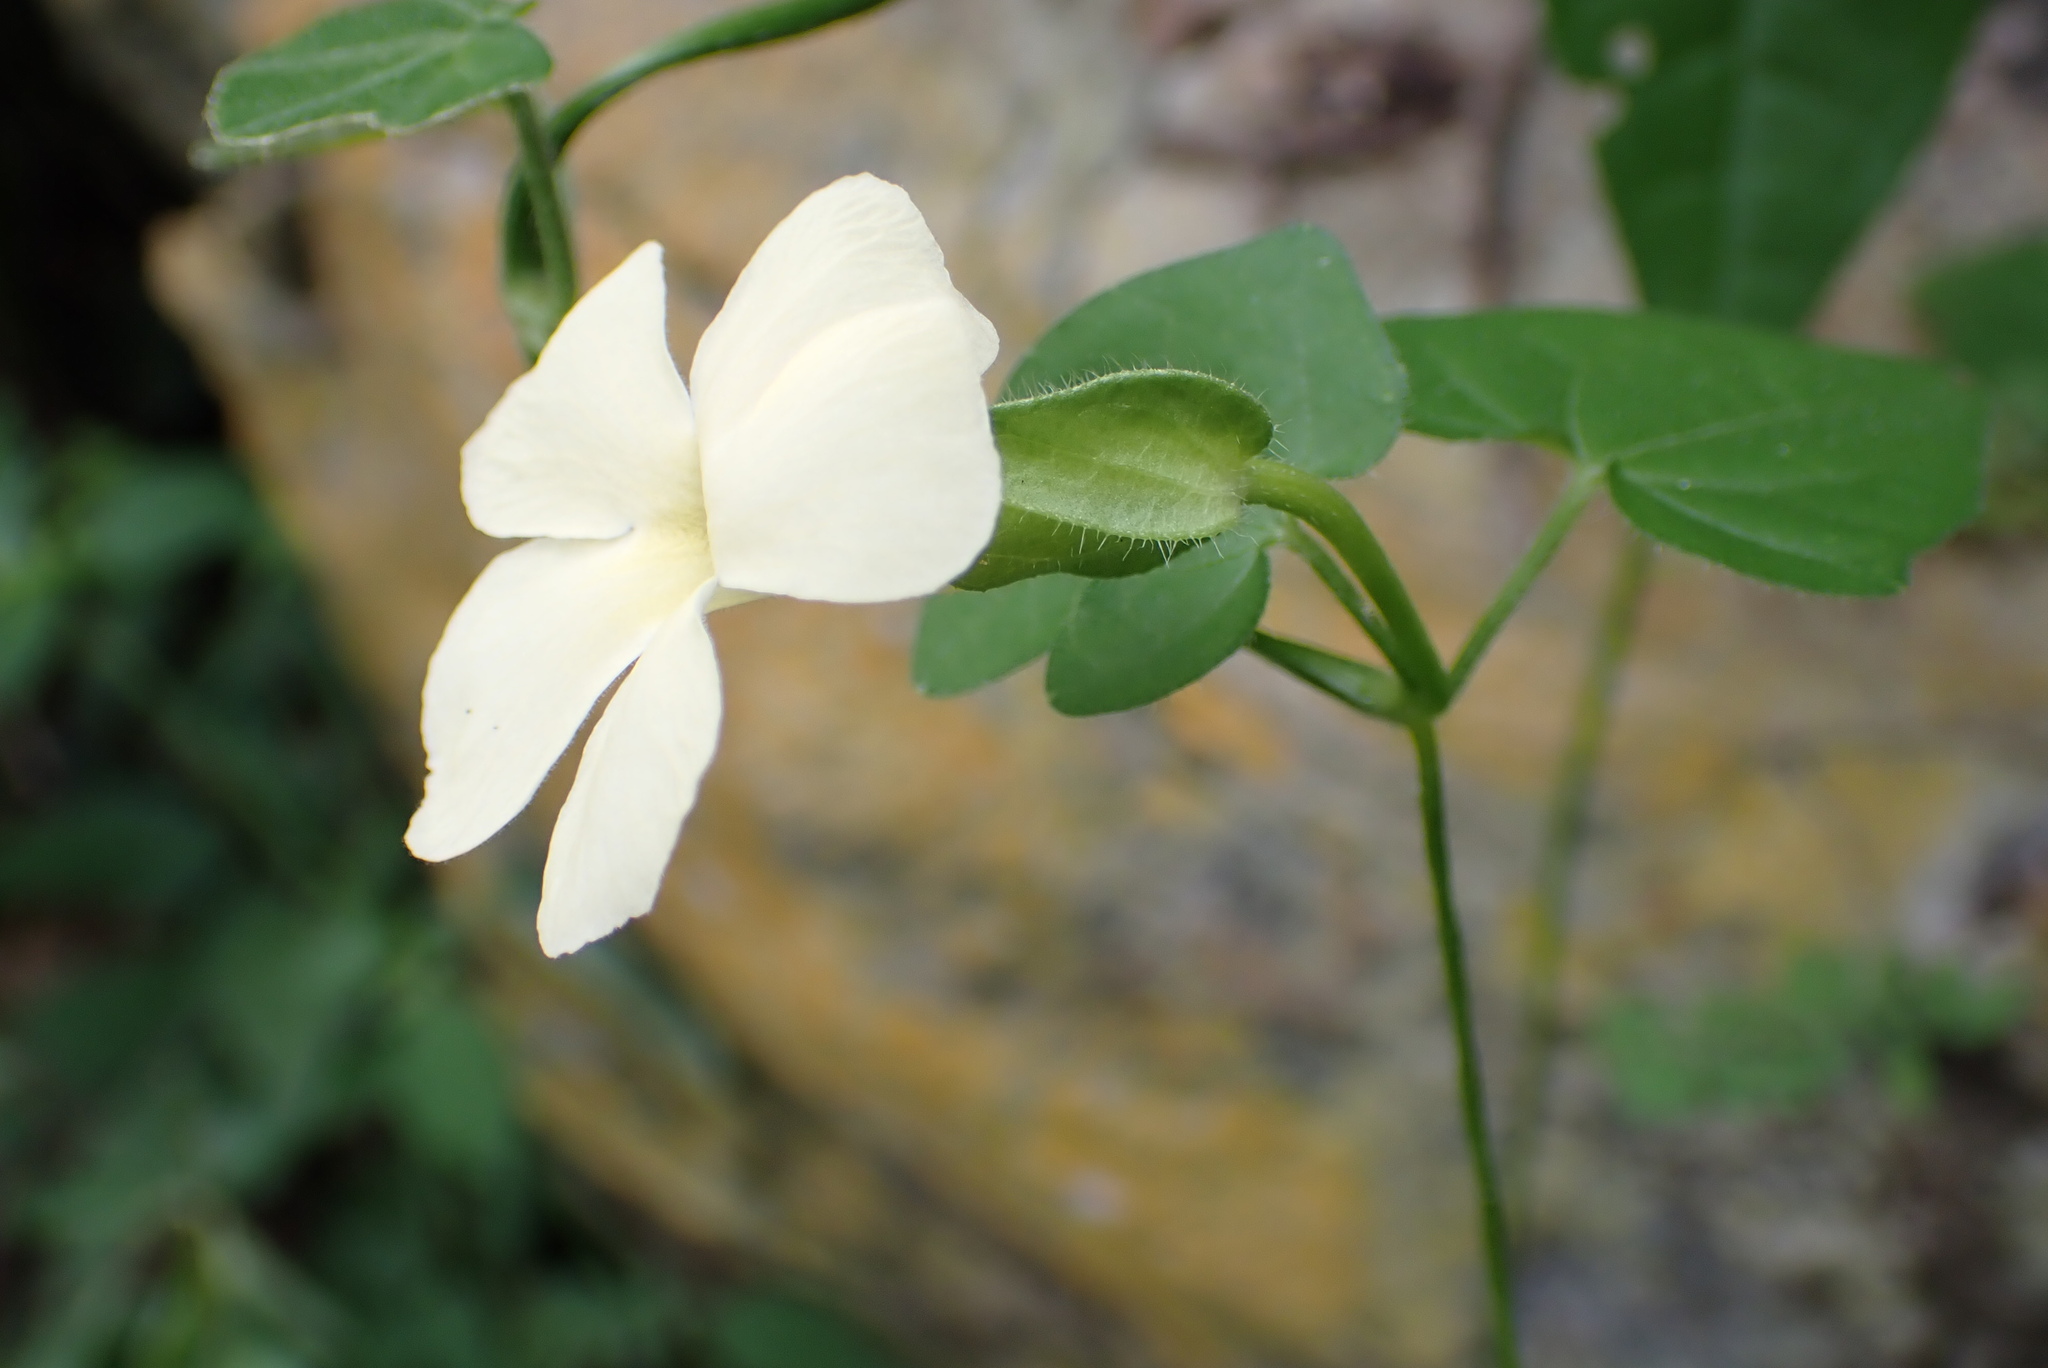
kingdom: Plantae
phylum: Tracheophyta
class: Magnoliopsida
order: Lamiales
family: Acanthaceae
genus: Thunbergia
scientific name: Thunbergia neglecta
